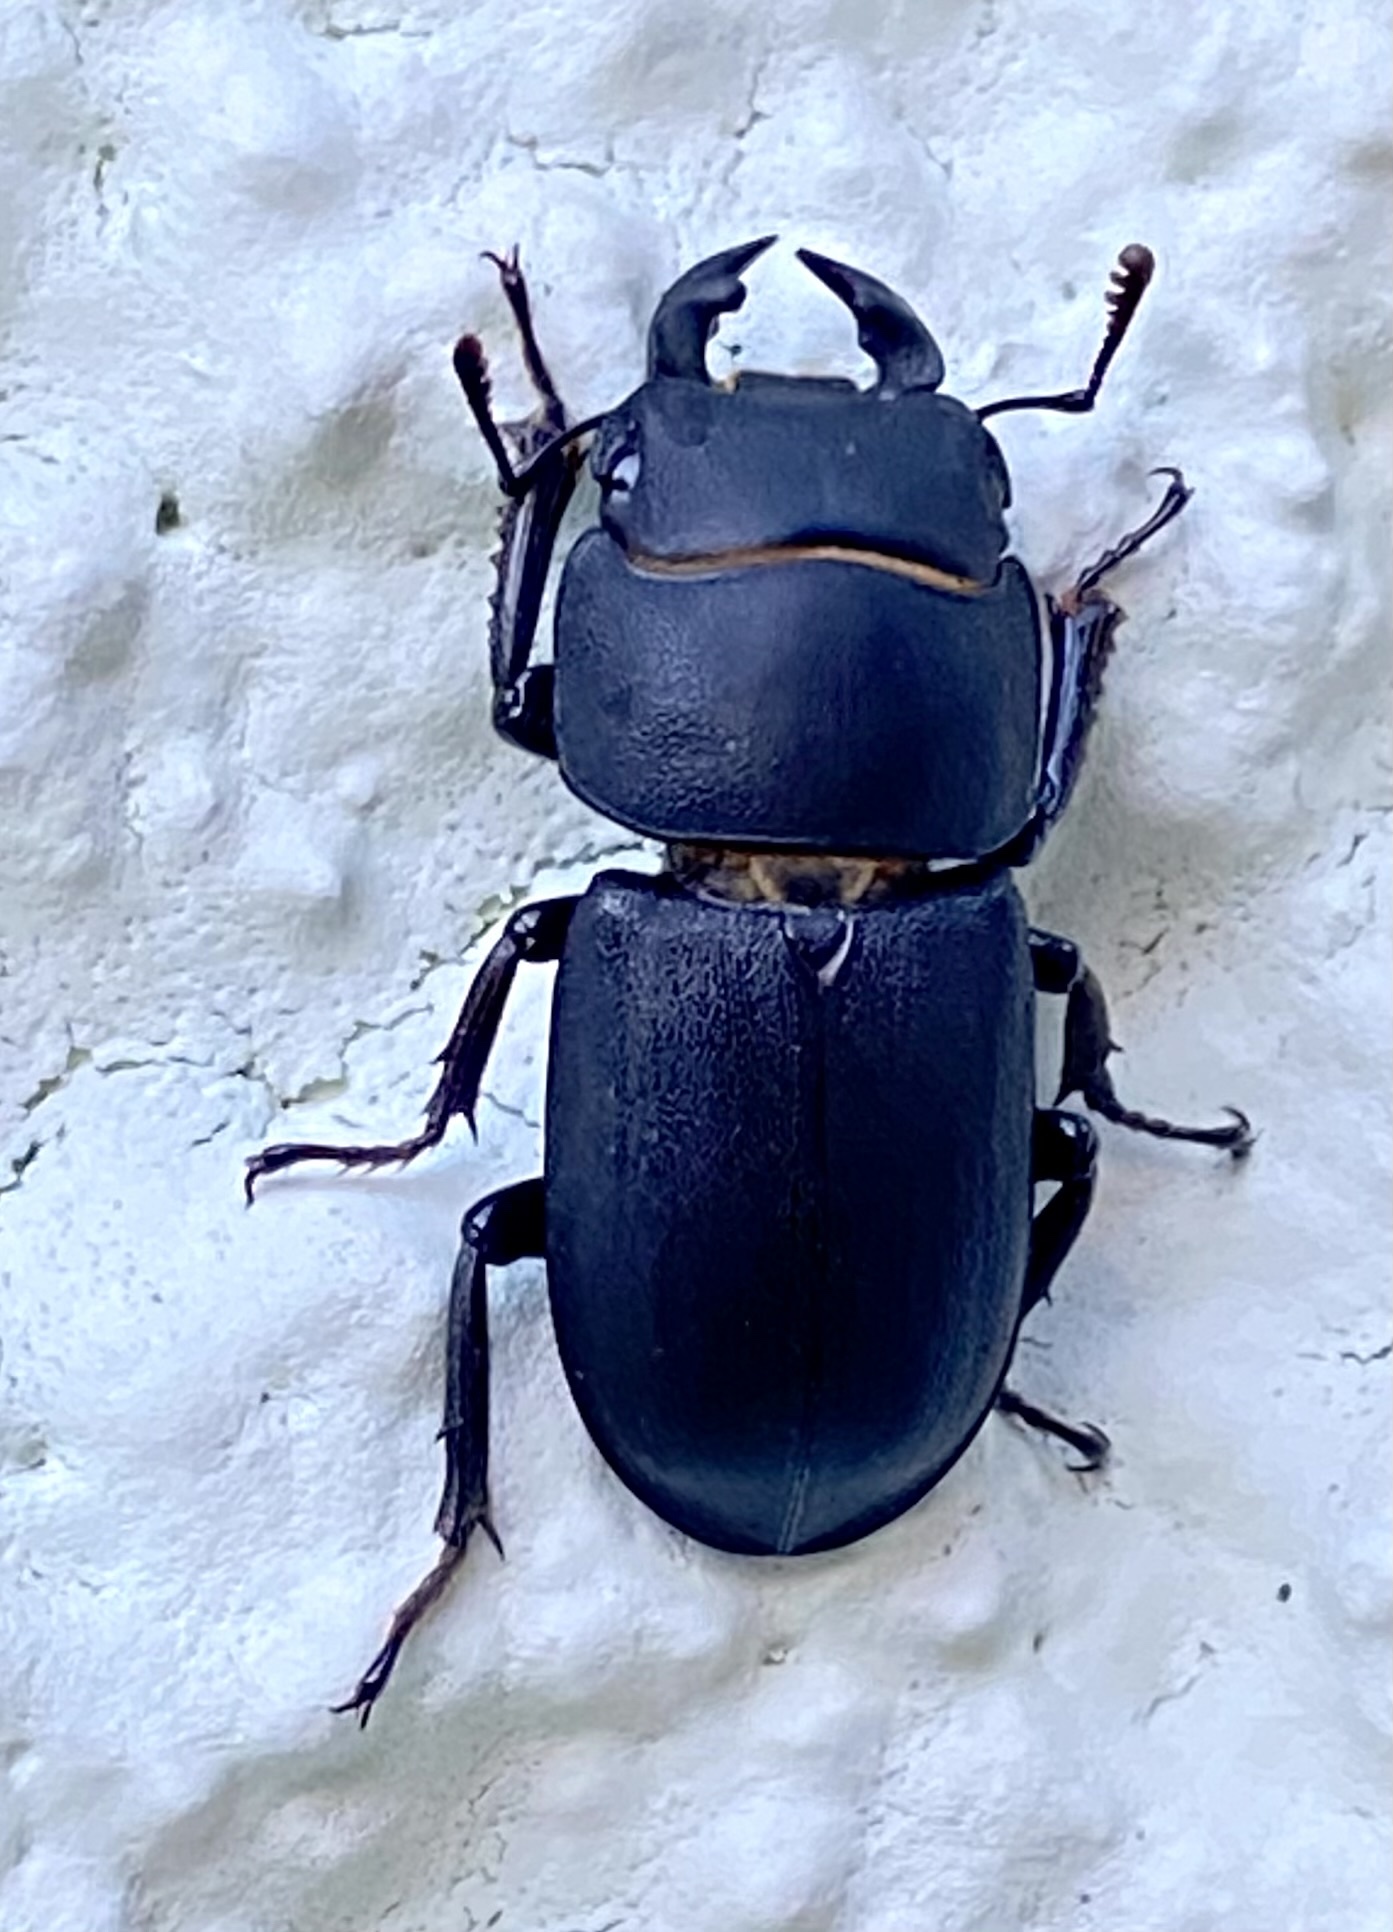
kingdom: Animalia
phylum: Arthropoda
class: Insecta
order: Coleoptera
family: Lucanidae
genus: Dorcus
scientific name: Dorcus parallelipipedus
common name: Lesser stag beetle
